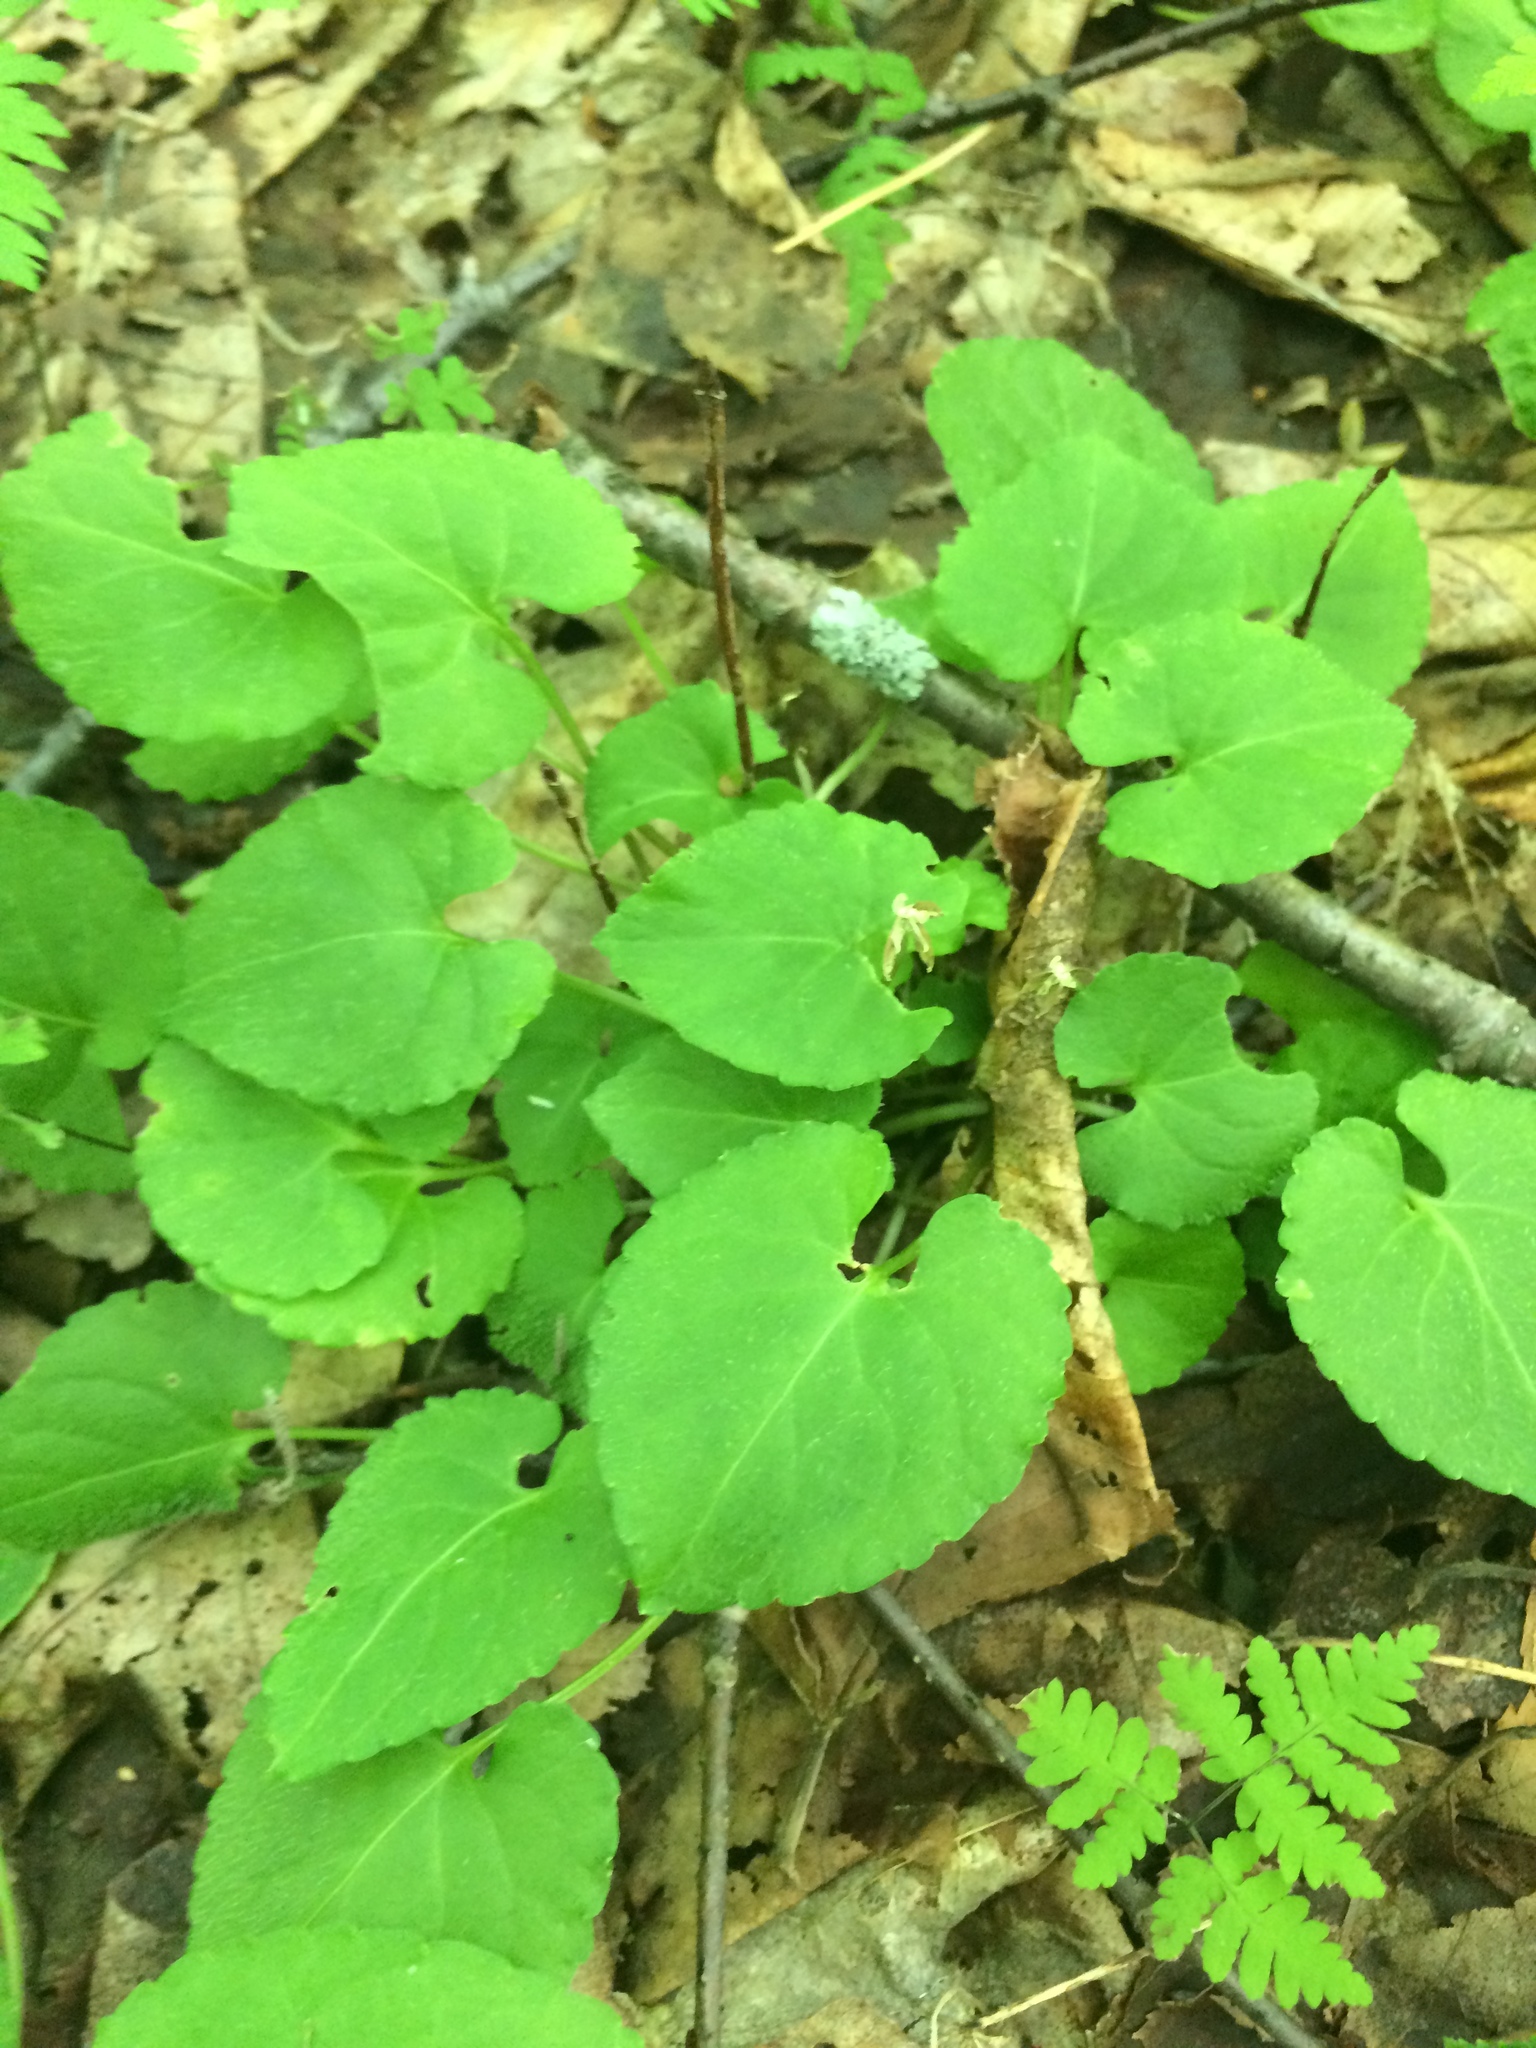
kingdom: Plantae
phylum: Tracheophyta
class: Magnoliopsida
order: Malpighiales
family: Violaceae
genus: Viola
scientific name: Viola minuscula
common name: Northern white violet
